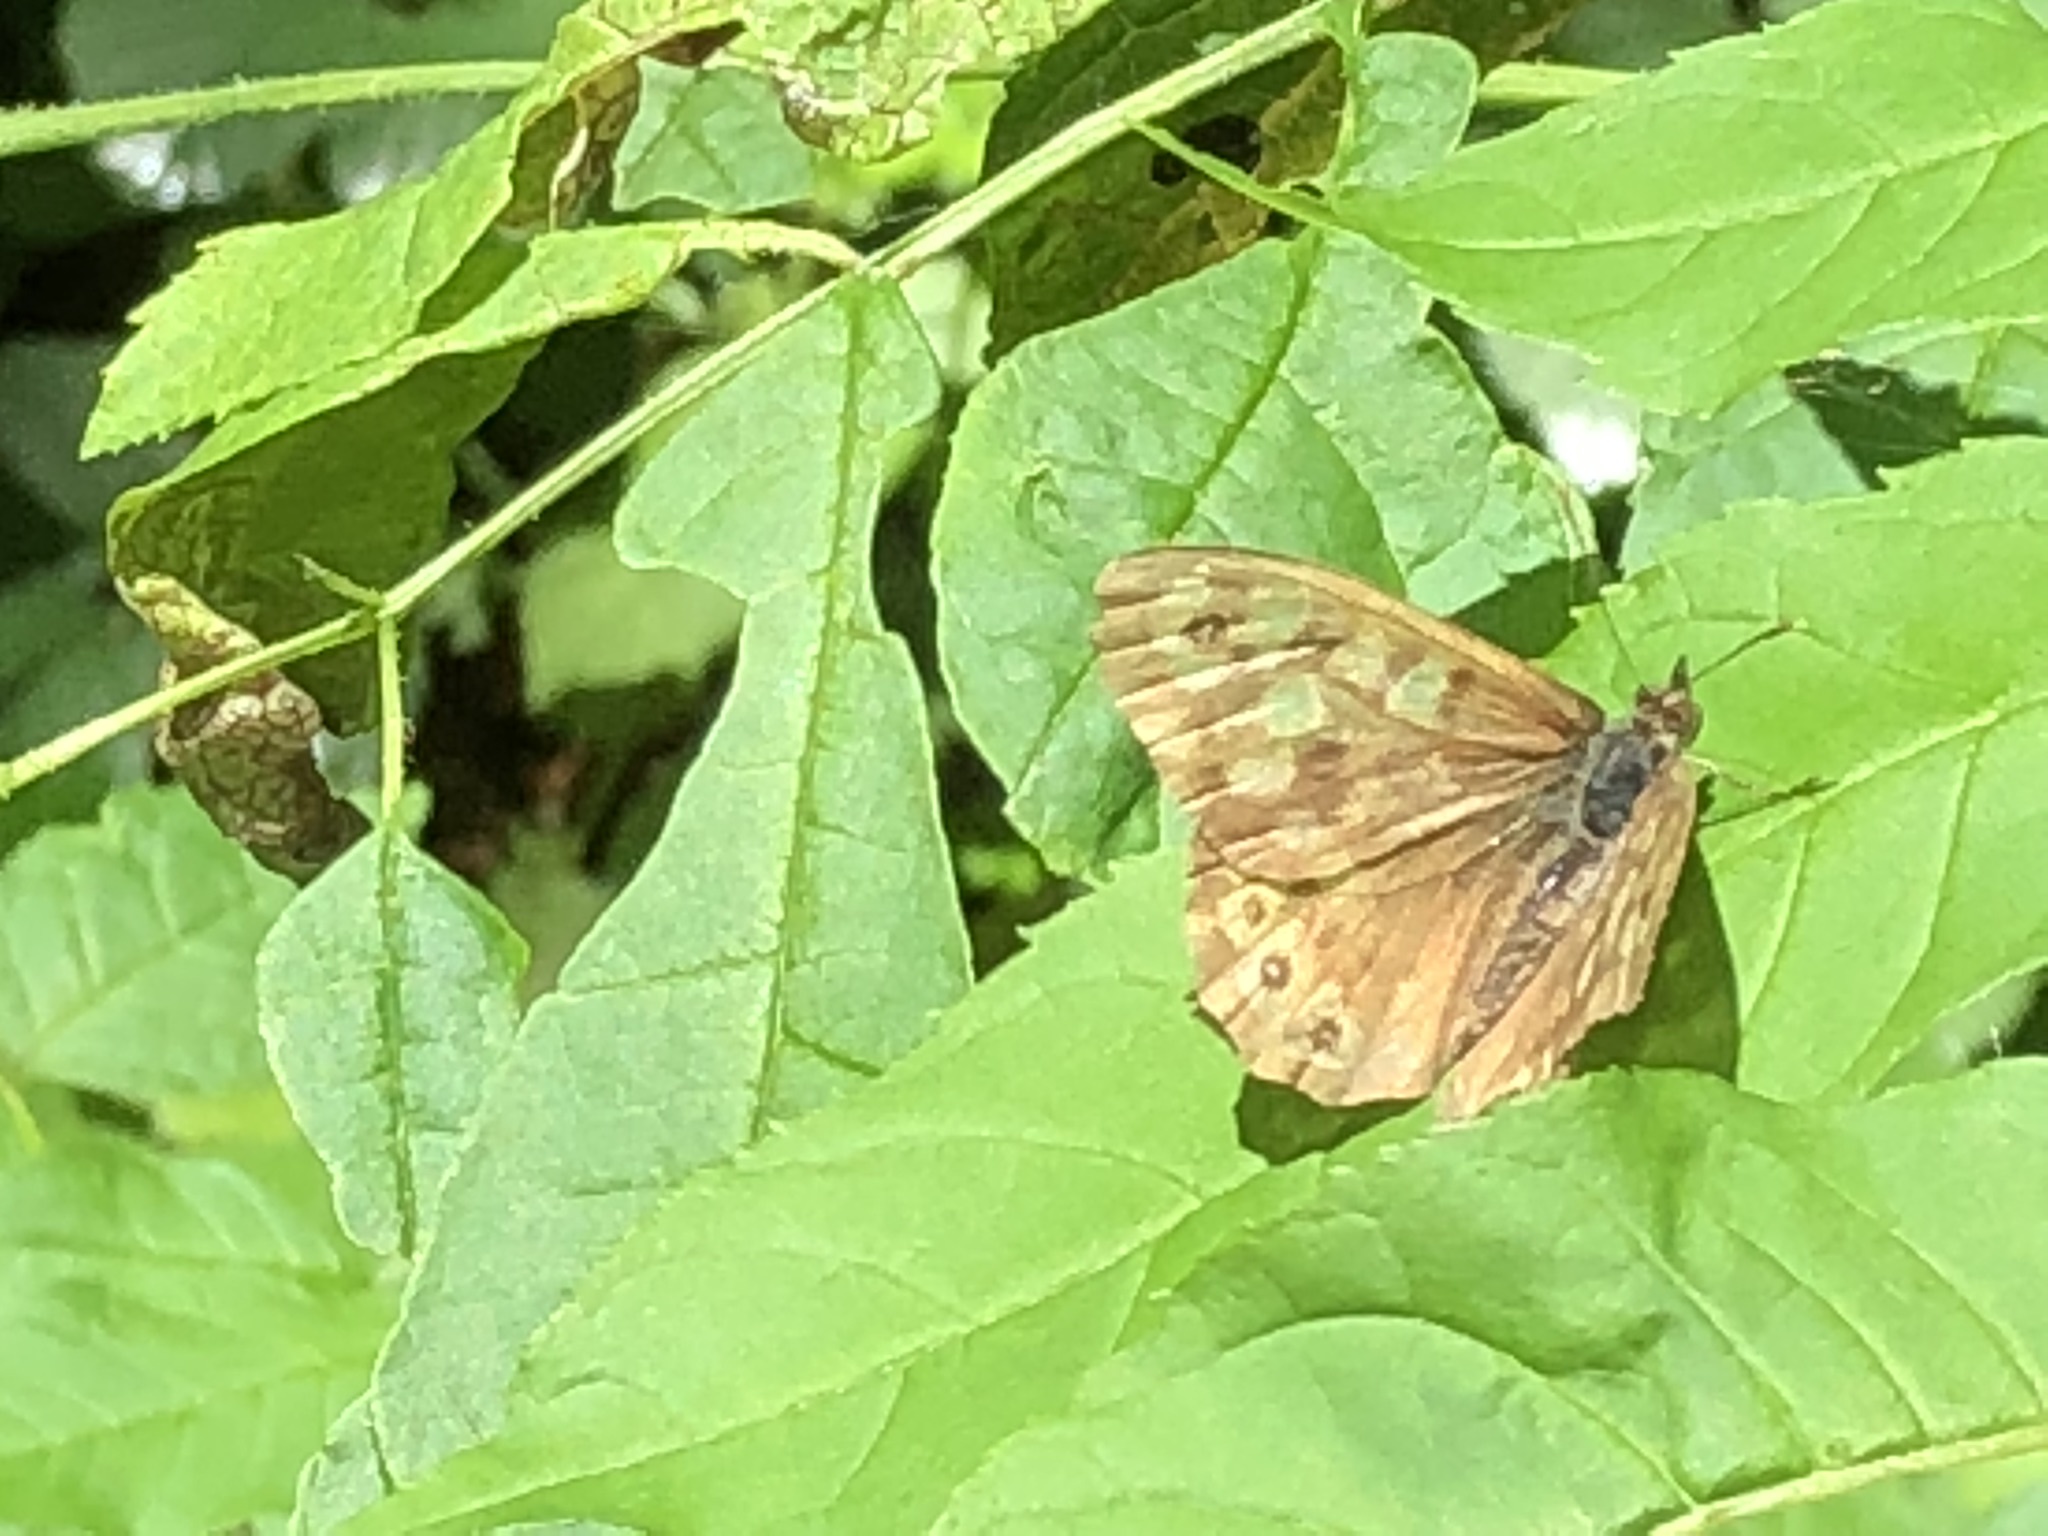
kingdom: Animalia
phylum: Arthropoda
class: Insecta
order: Lepidoptera
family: Nymphalidae
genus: Pararge
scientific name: Pararge aegeria
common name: Speckled wood
